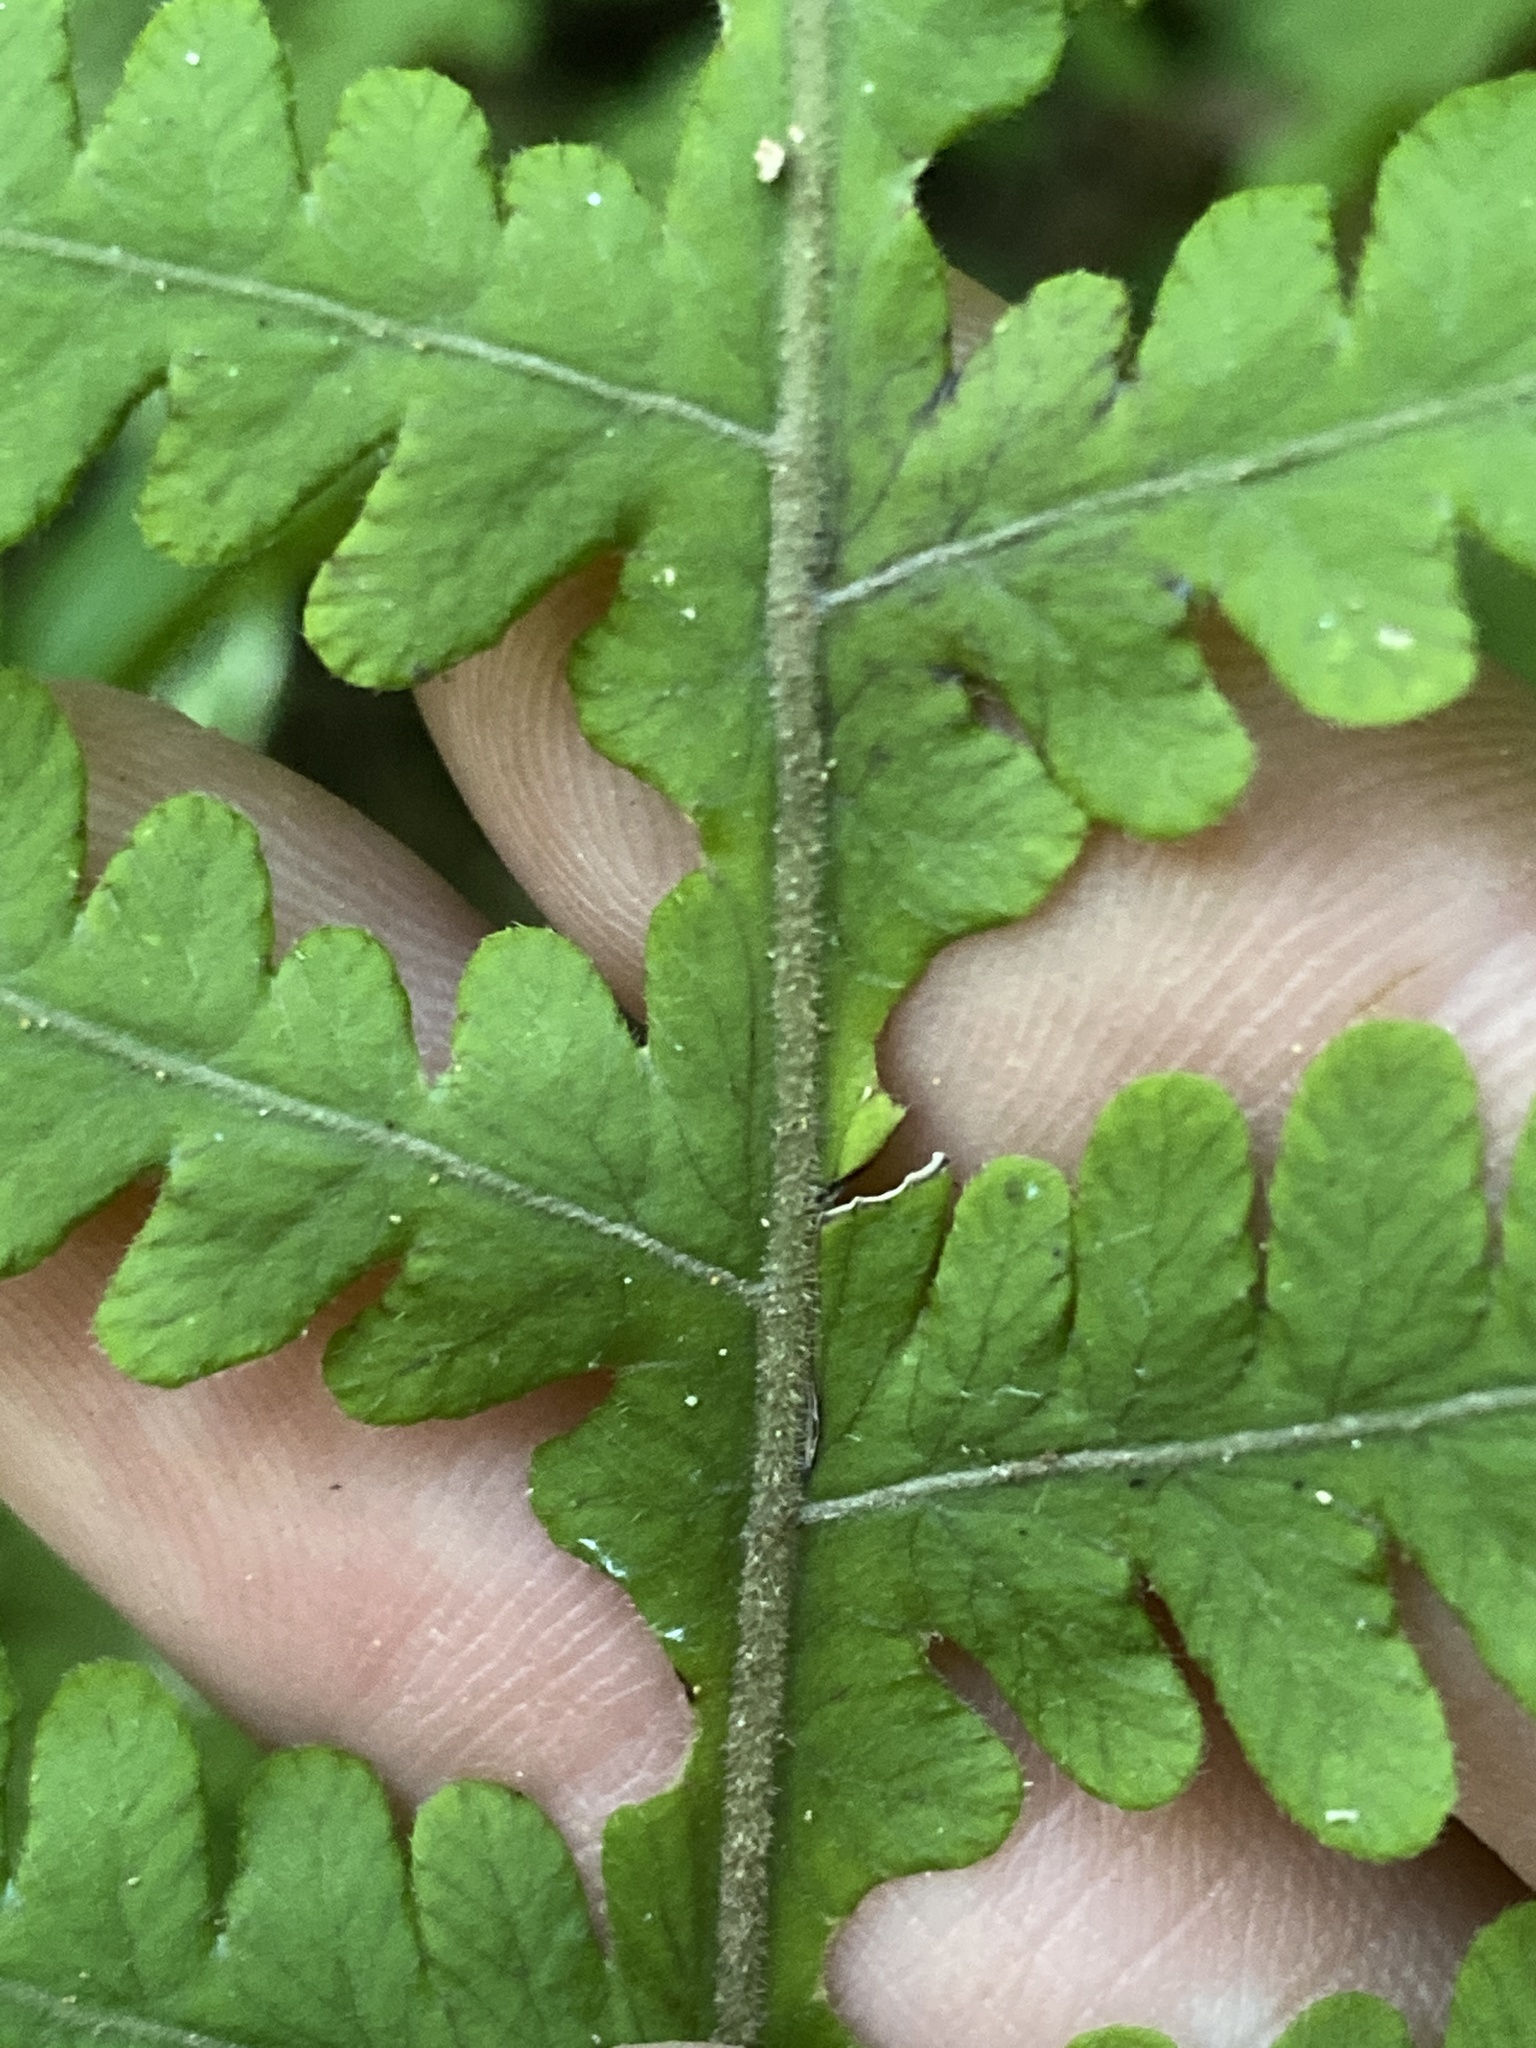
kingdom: Plantae
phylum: Tracheophyta
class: Polypodiopsida
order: Polypodiales
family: Thelypteridaceae
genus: Phegopteris
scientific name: Phegopteris hexagonoptera
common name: Broad beech fern
